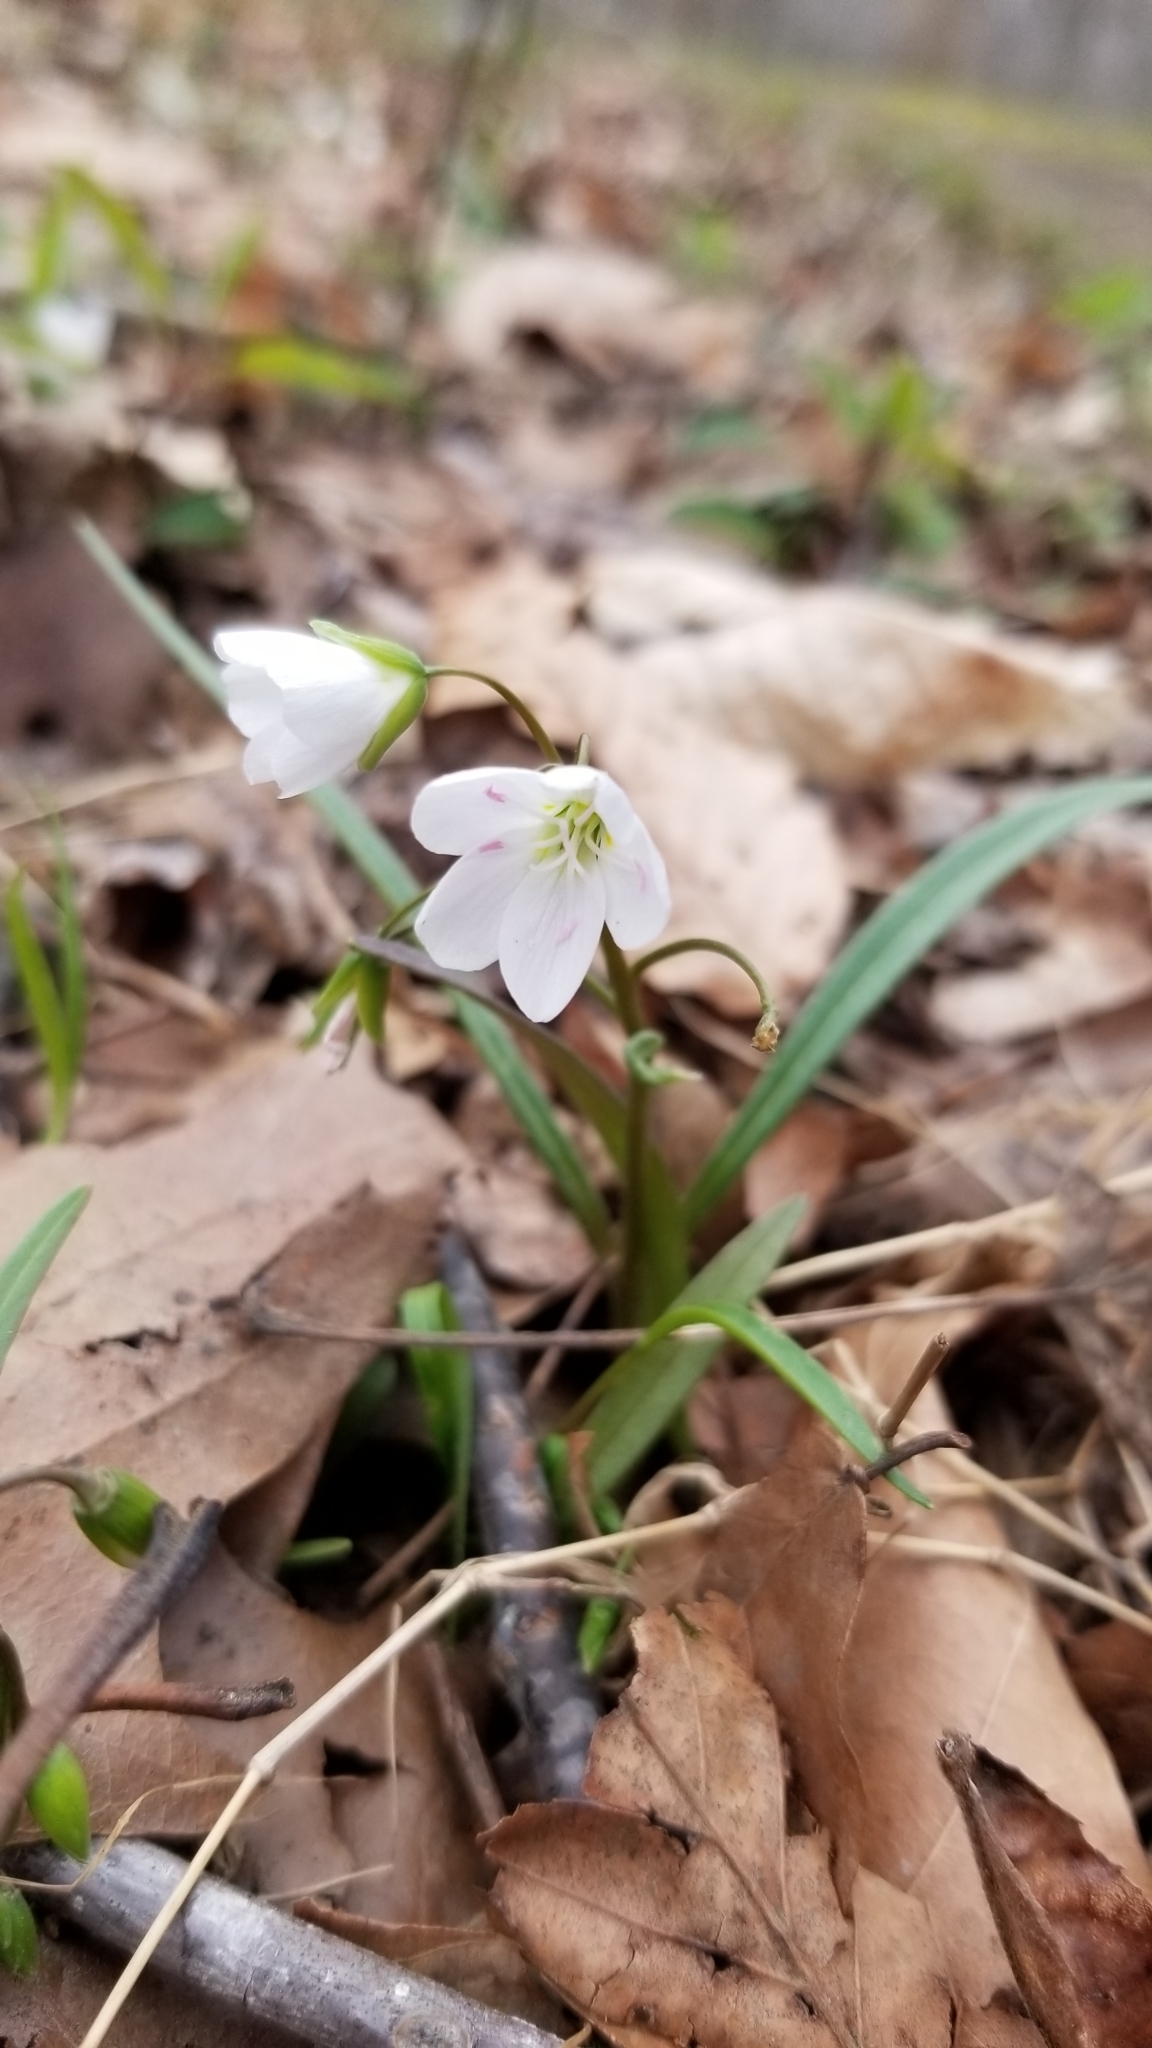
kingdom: Plantae
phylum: Tracheophyta
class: Magnoliopsida
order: Caryophyllales
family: Montiaceae
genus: Claytonia
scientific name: Claytonia virginica
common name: Virginia springbeauty
